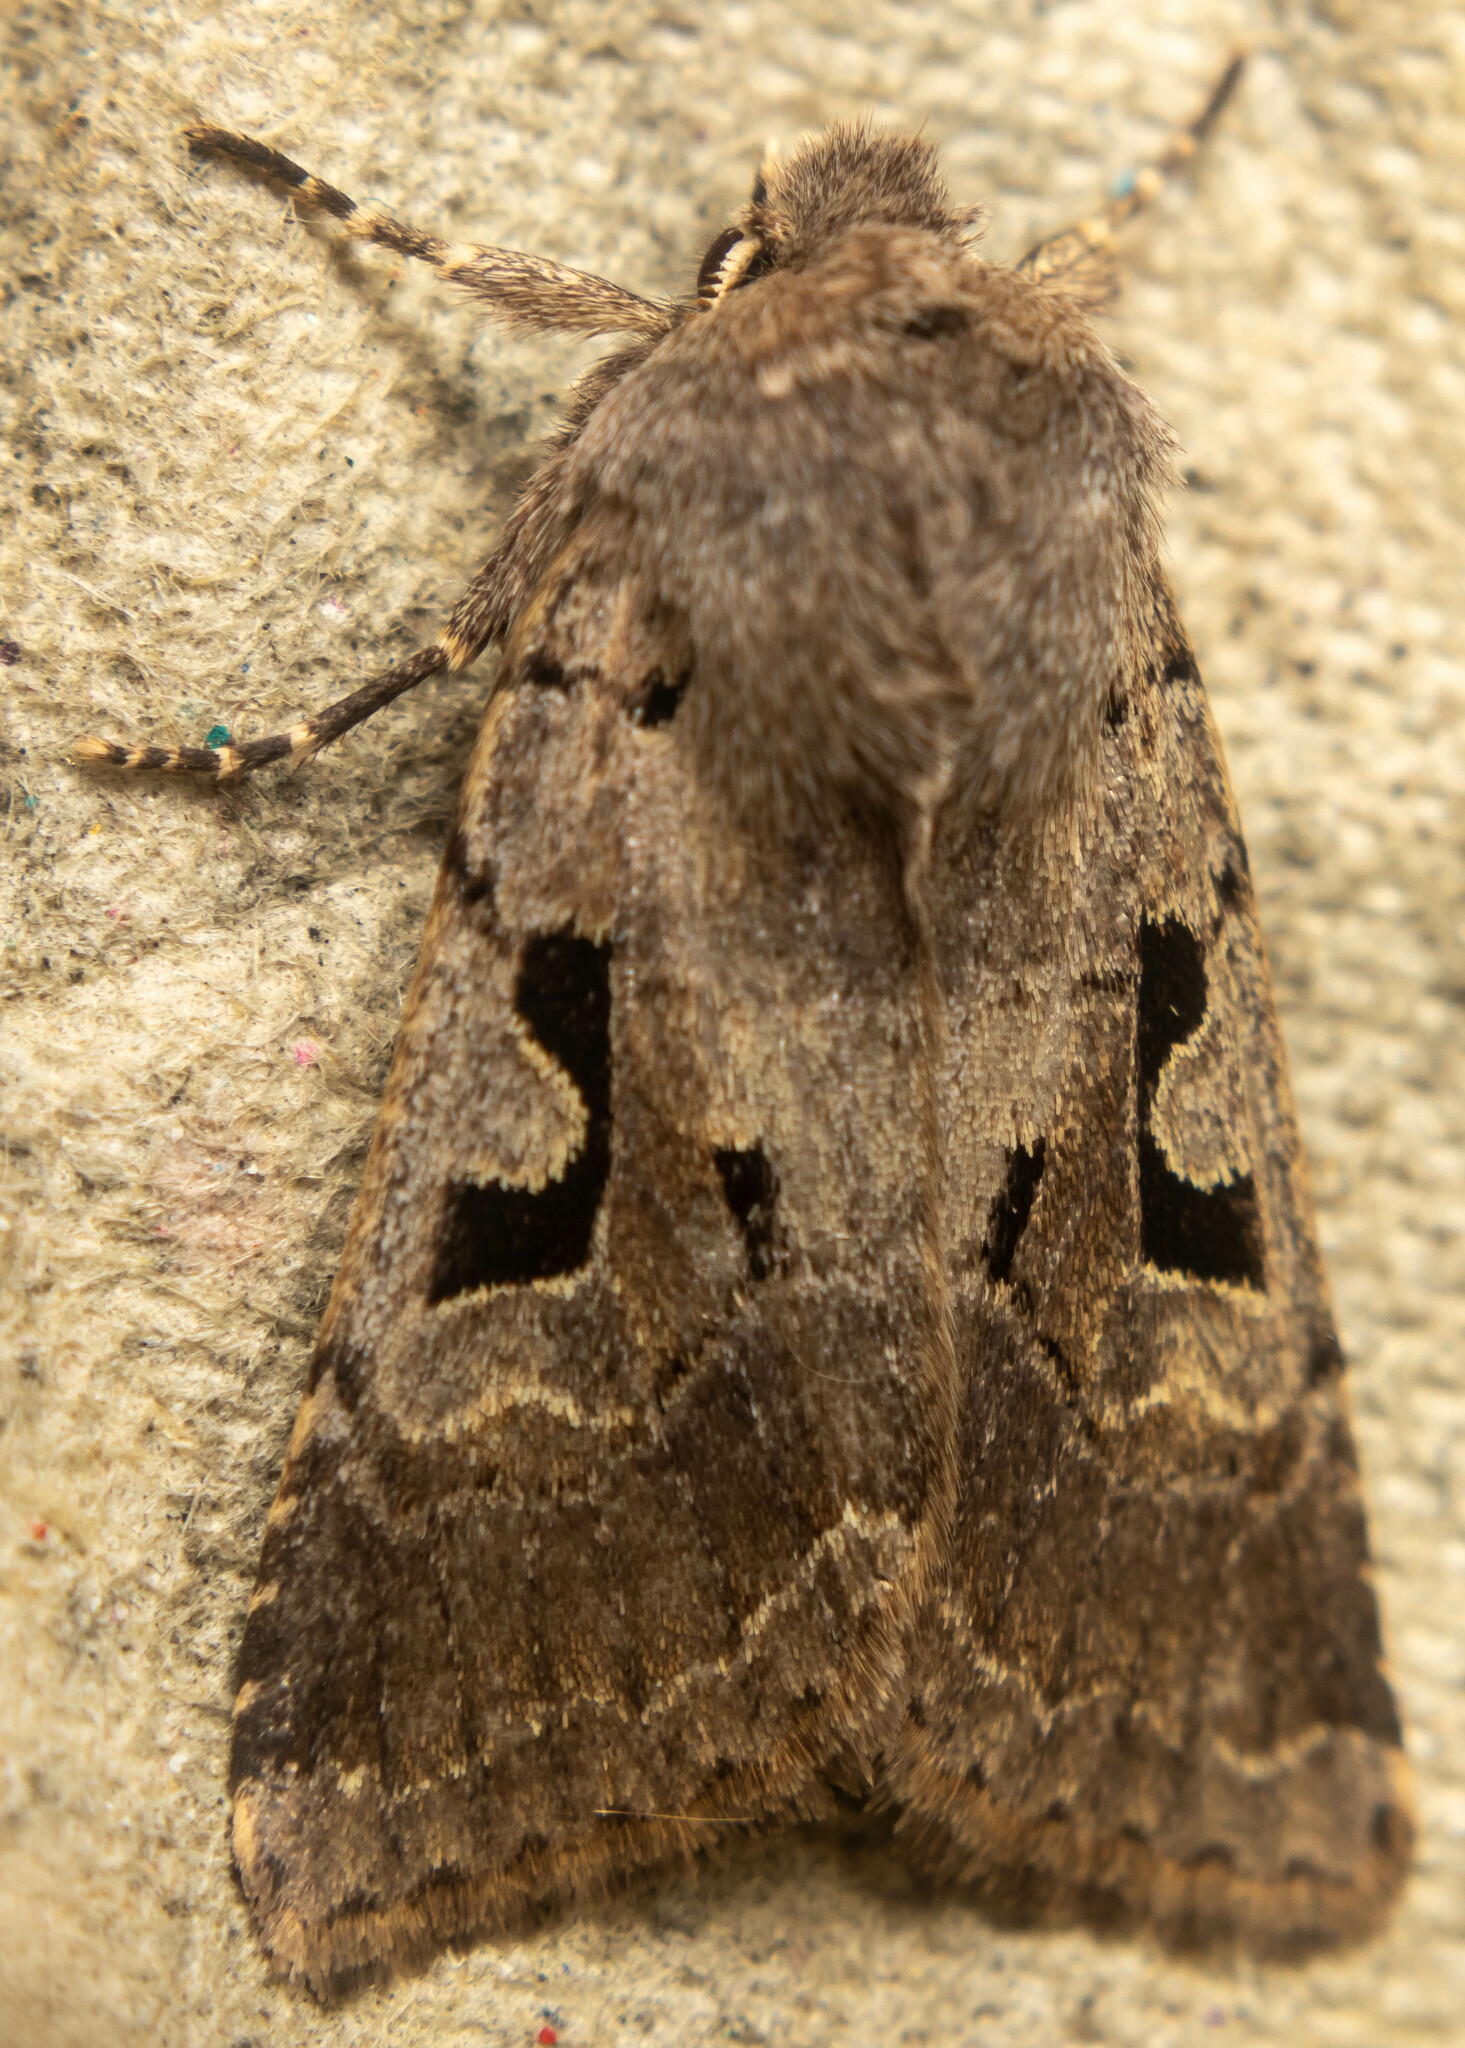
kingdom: Animalia
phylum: Arthropoda
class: Insecta
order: Lepidoptera
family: Noctuidae
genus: Orthosia
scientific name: Orthosia gothica
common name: Hebrew character
